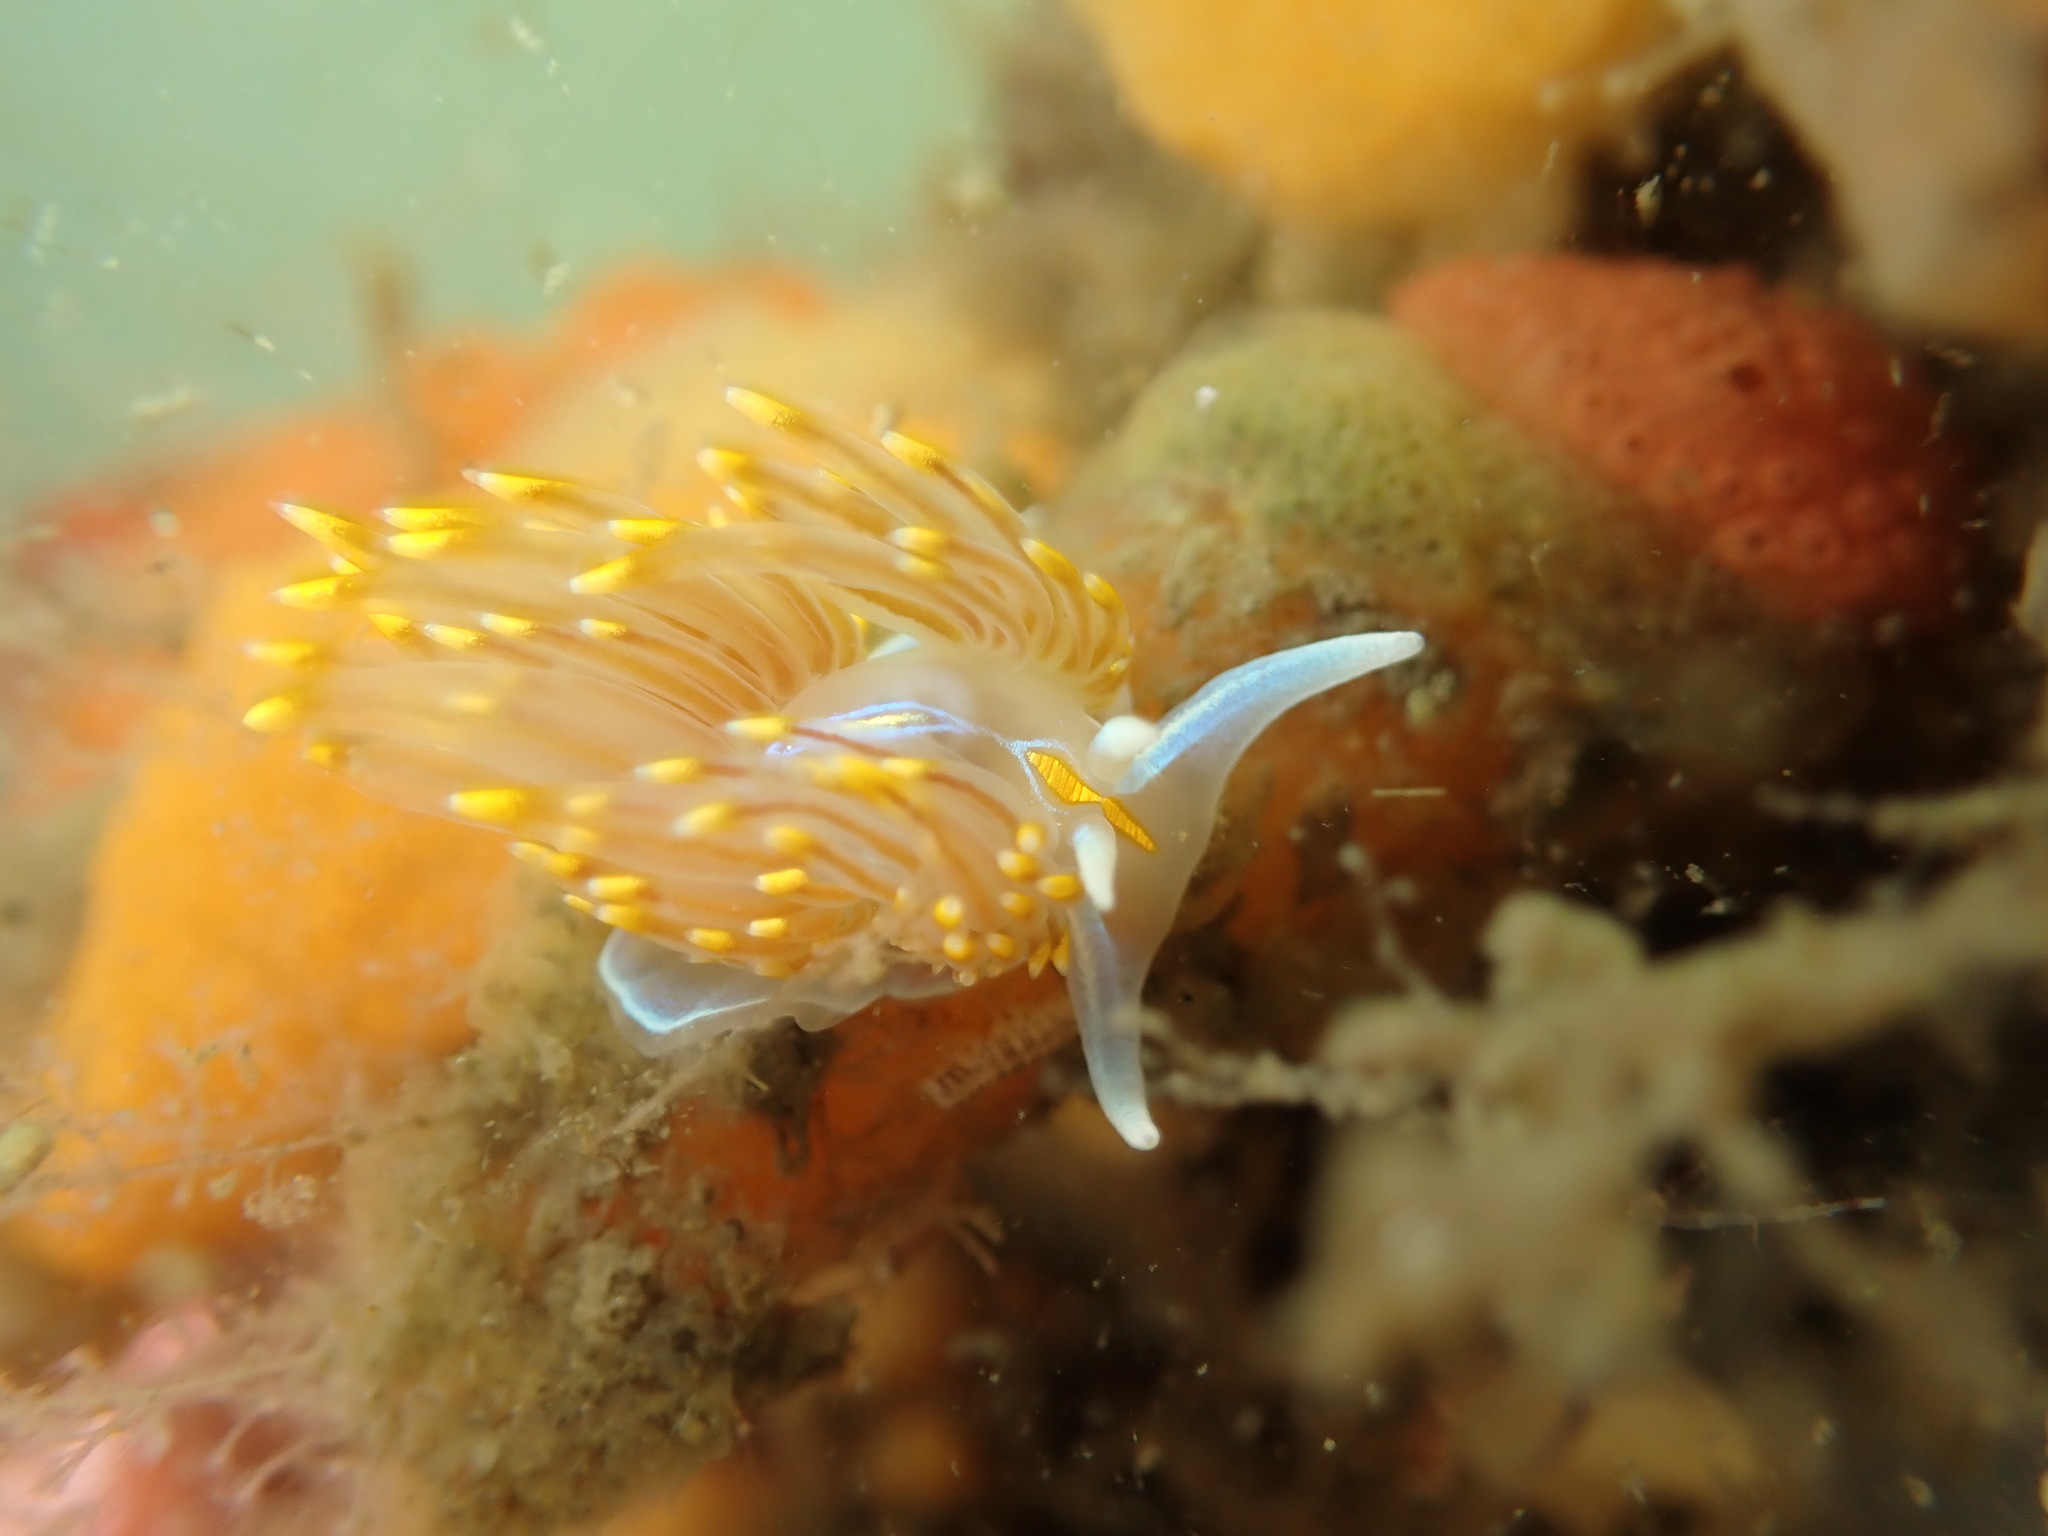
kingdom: Animalia
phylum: Mollusca
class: Gastropoda
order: Nudibranchia
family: Myrrhinidae
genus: Hermissenda
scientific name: Hermissenda opalescens
